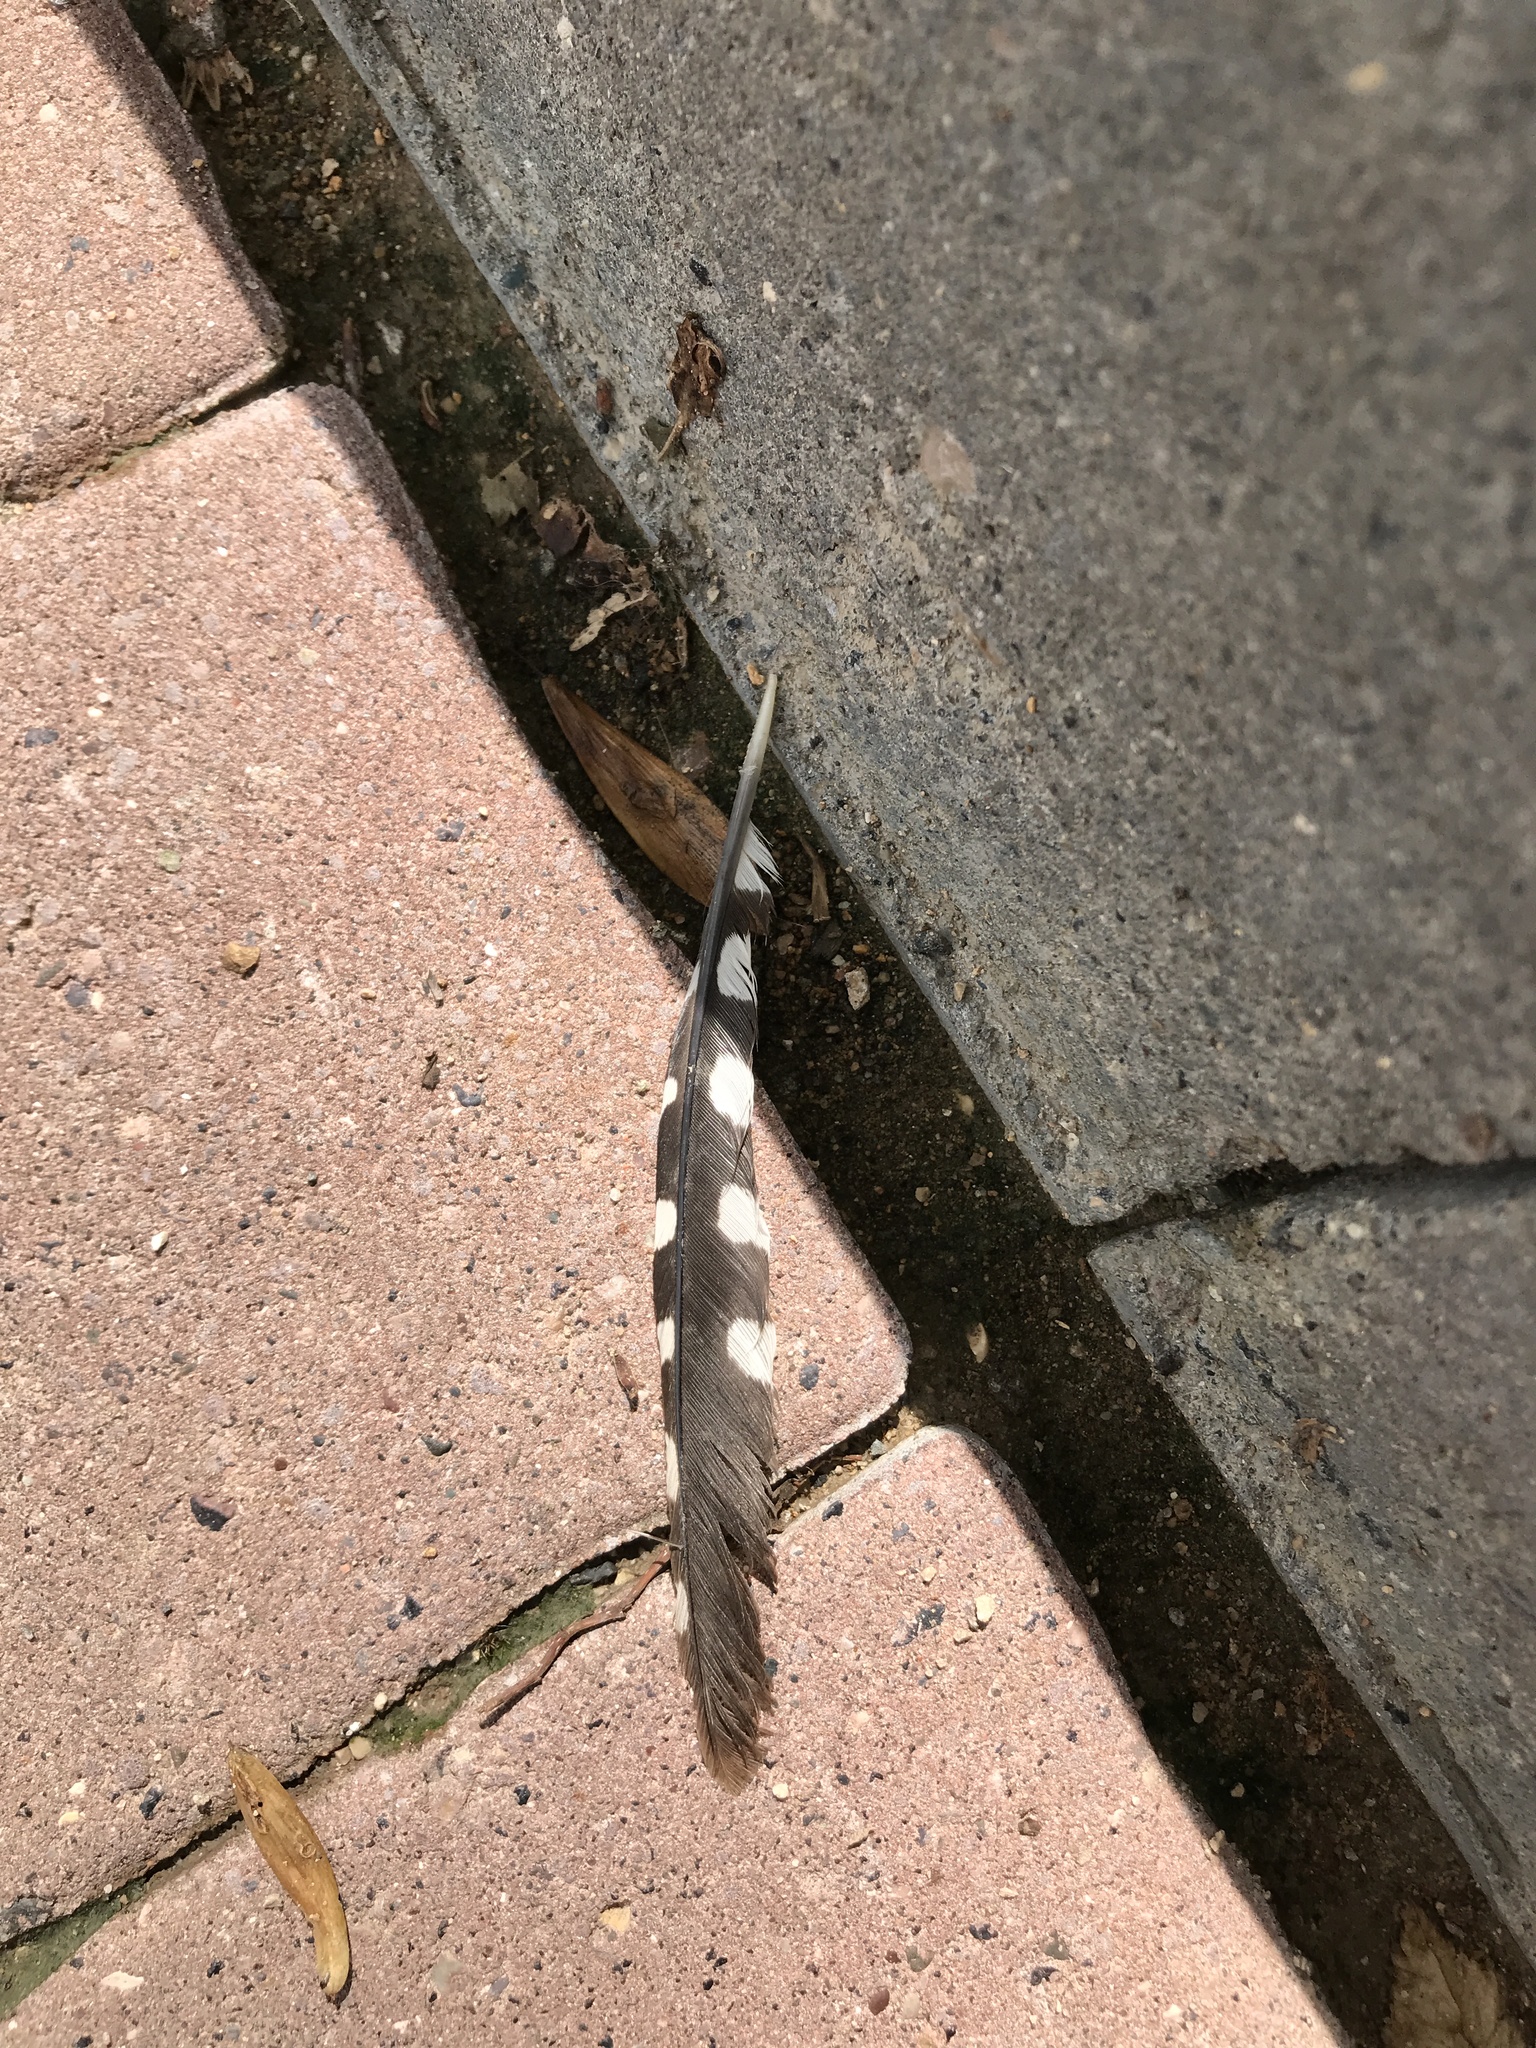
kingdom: Animalia
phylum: Chordata
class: Aves
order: Piciformes
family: Picidae
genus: Dendrocopos
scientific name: Dendrocopos major
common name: Great spotted woodpecker
